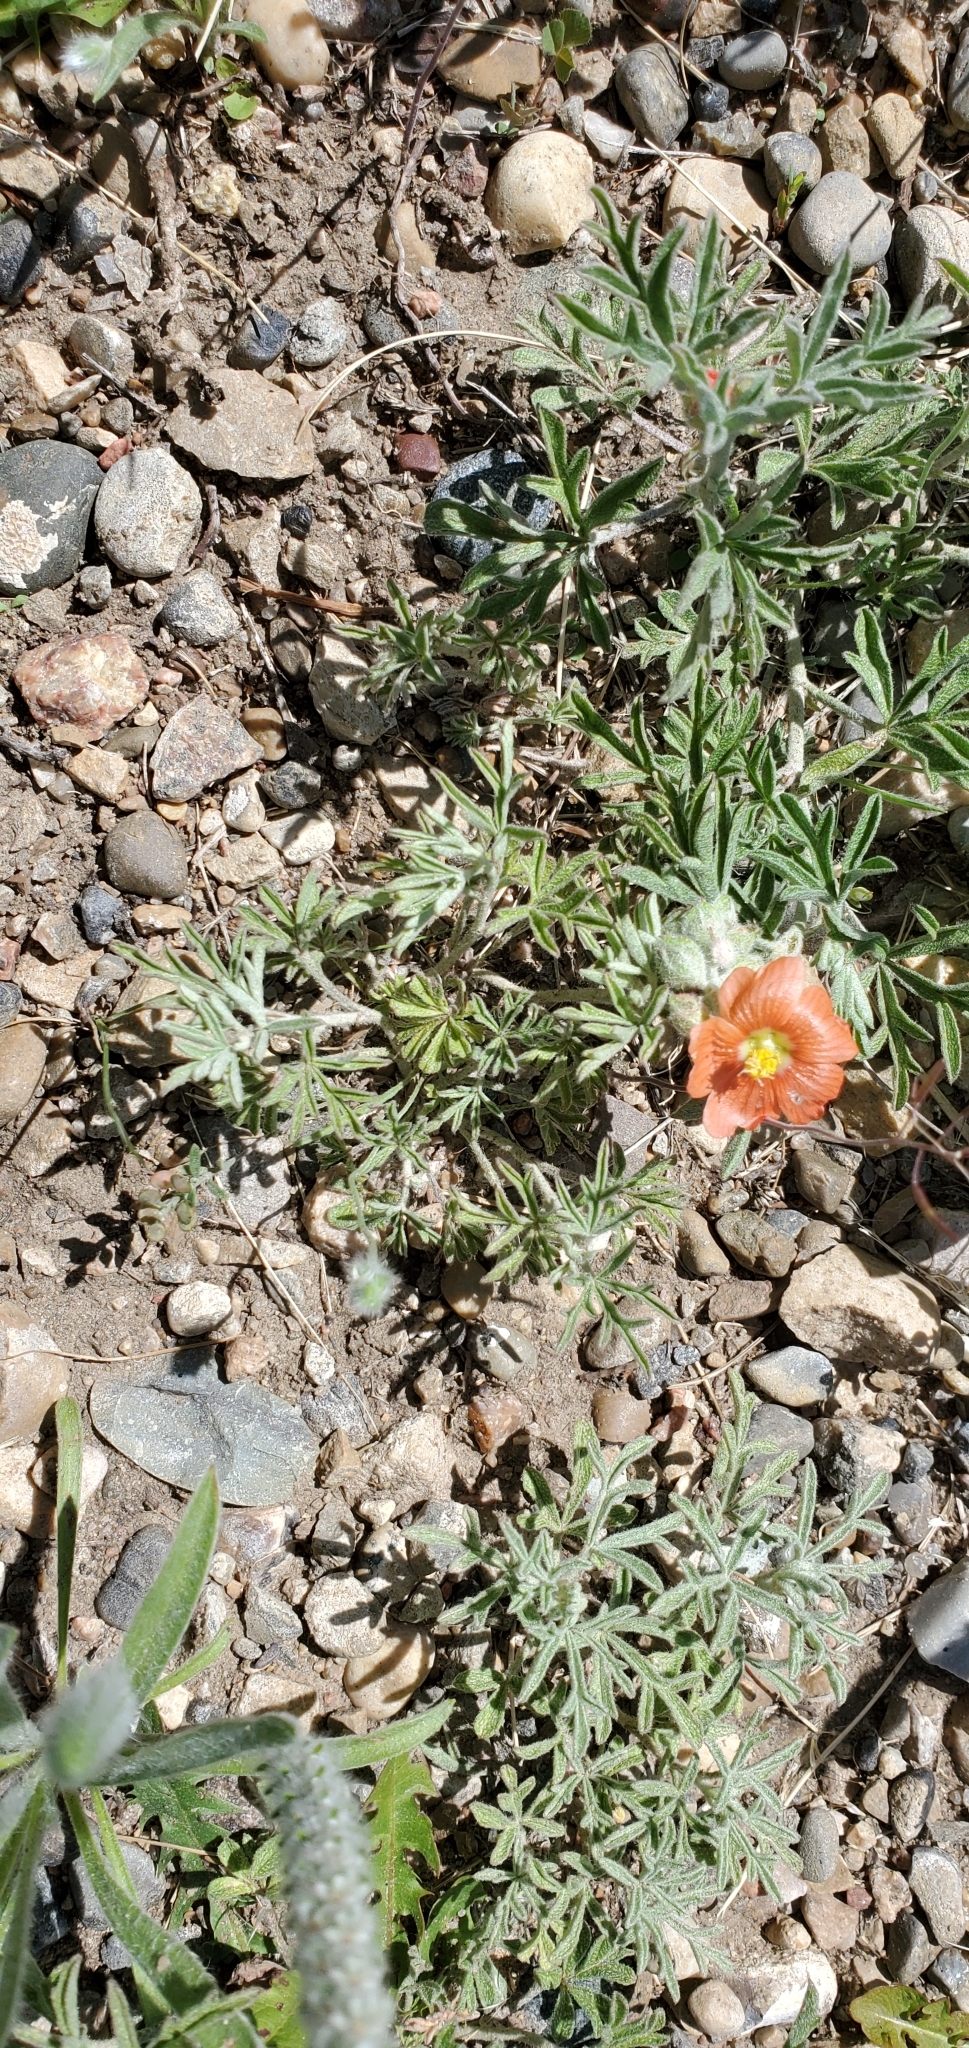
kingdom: Plantae
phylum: Tracheophyta
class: Magnoliopsida
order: Malvales
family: Malvaceae
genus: Sphaeralcea
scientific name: Sphaeralcea coccinea
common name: Moss-rose
